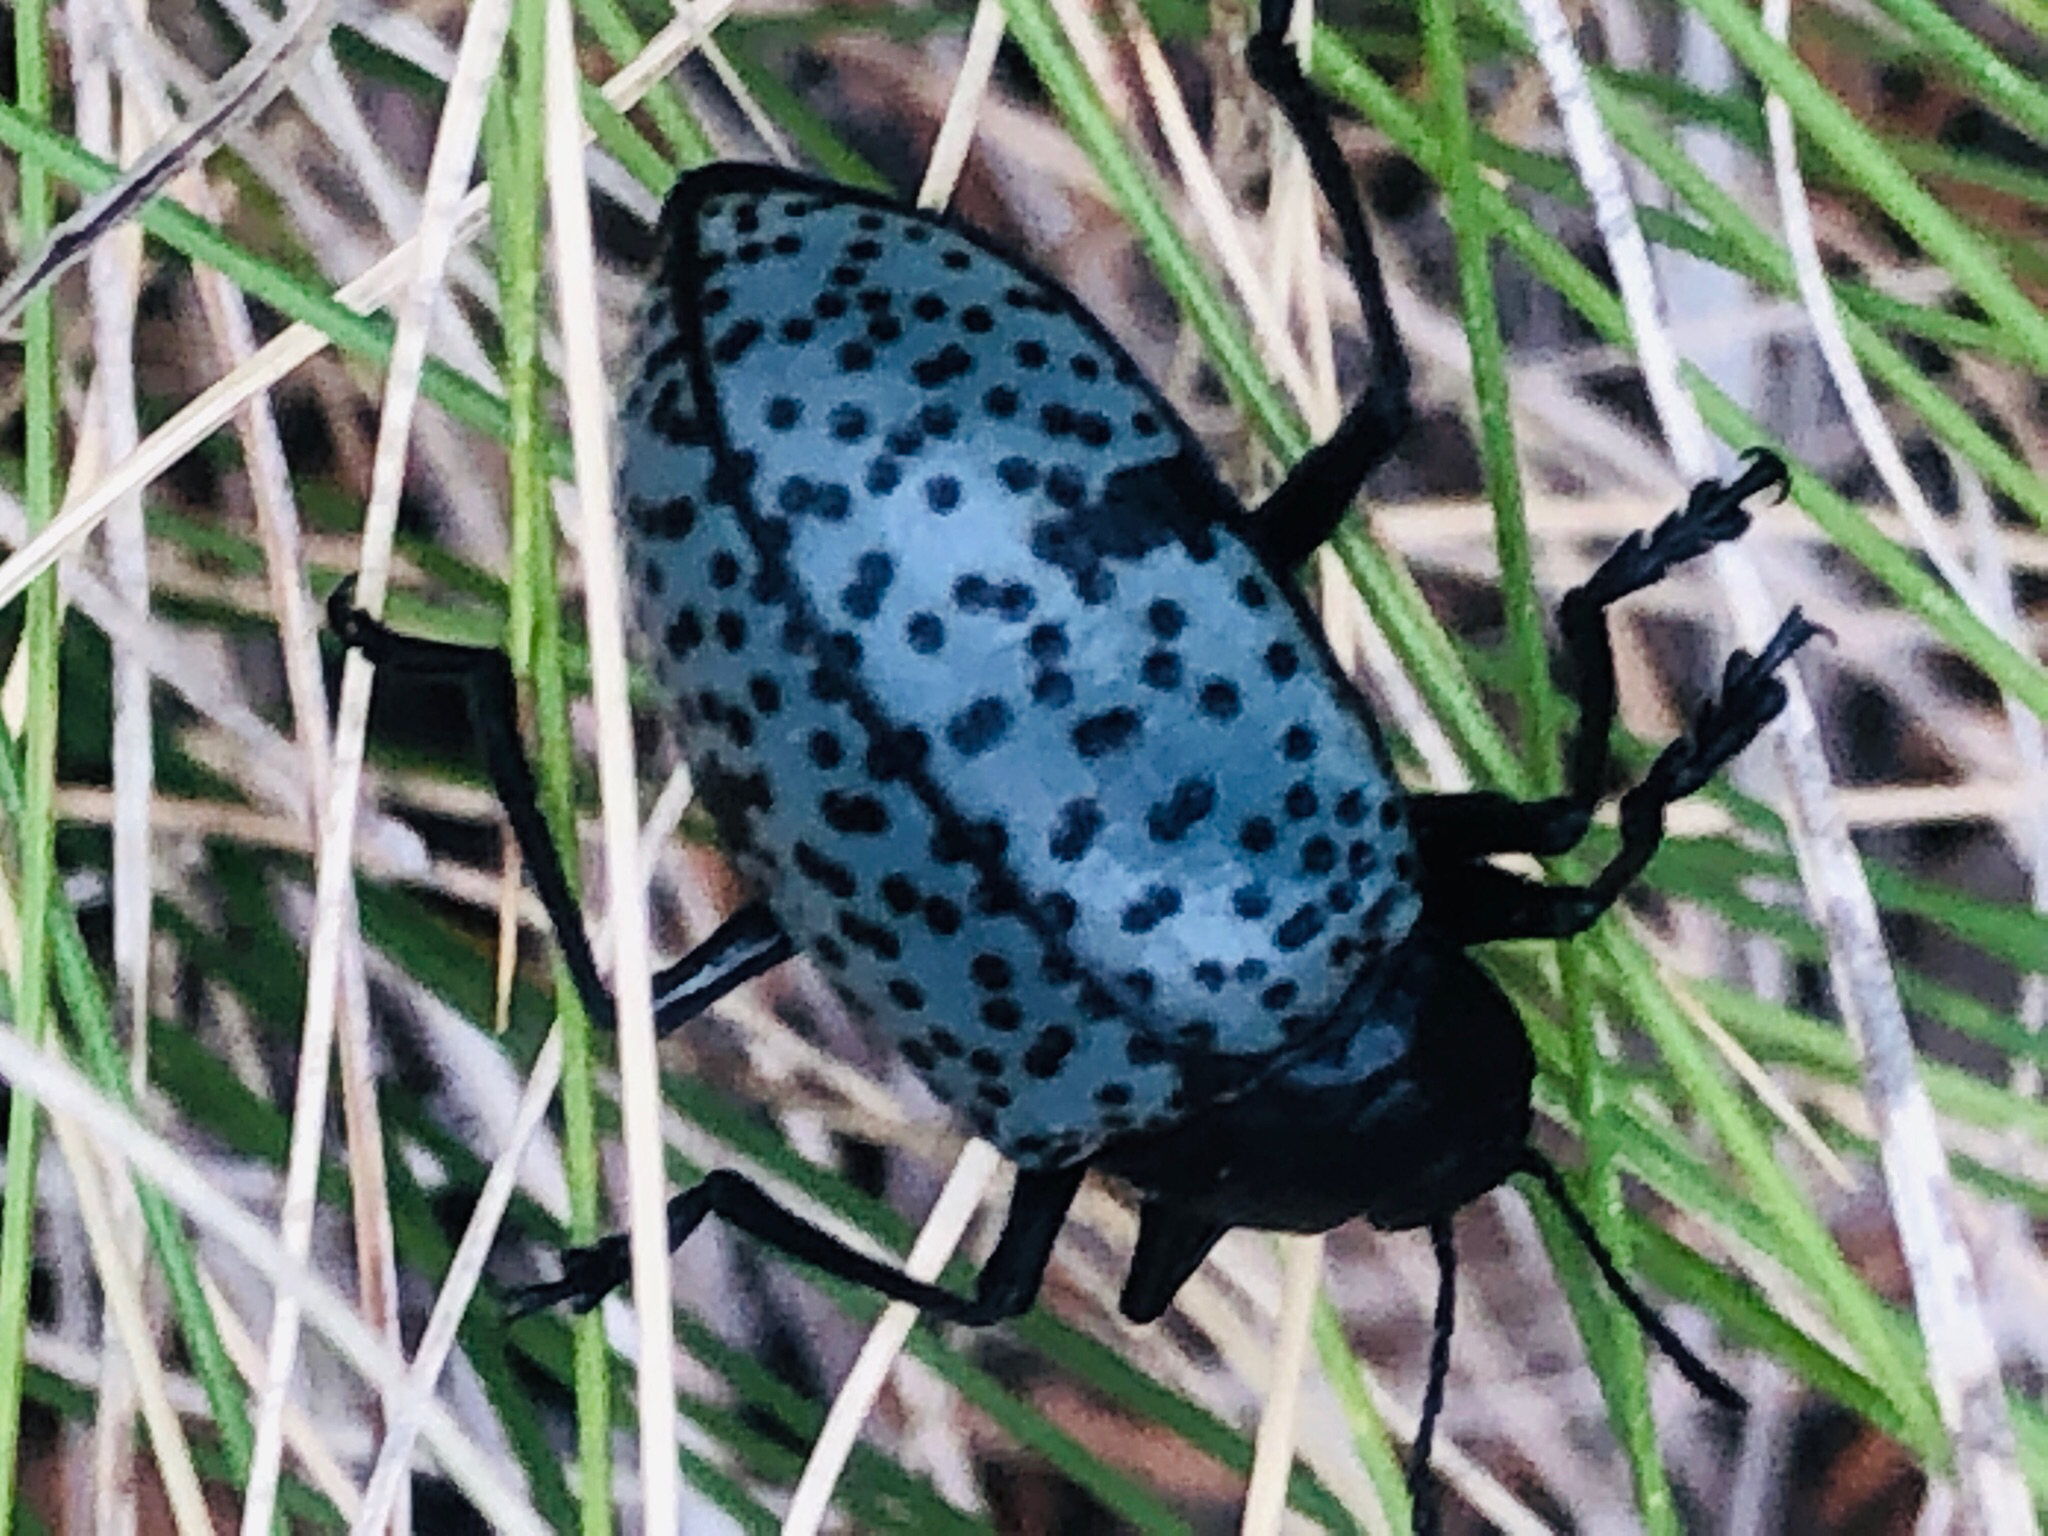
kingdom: Animalia
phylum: Arthropoda
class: Insecta
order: Coleoptera
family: Erotylidae
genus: Gibbifer
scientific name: Gibbifer californicus
